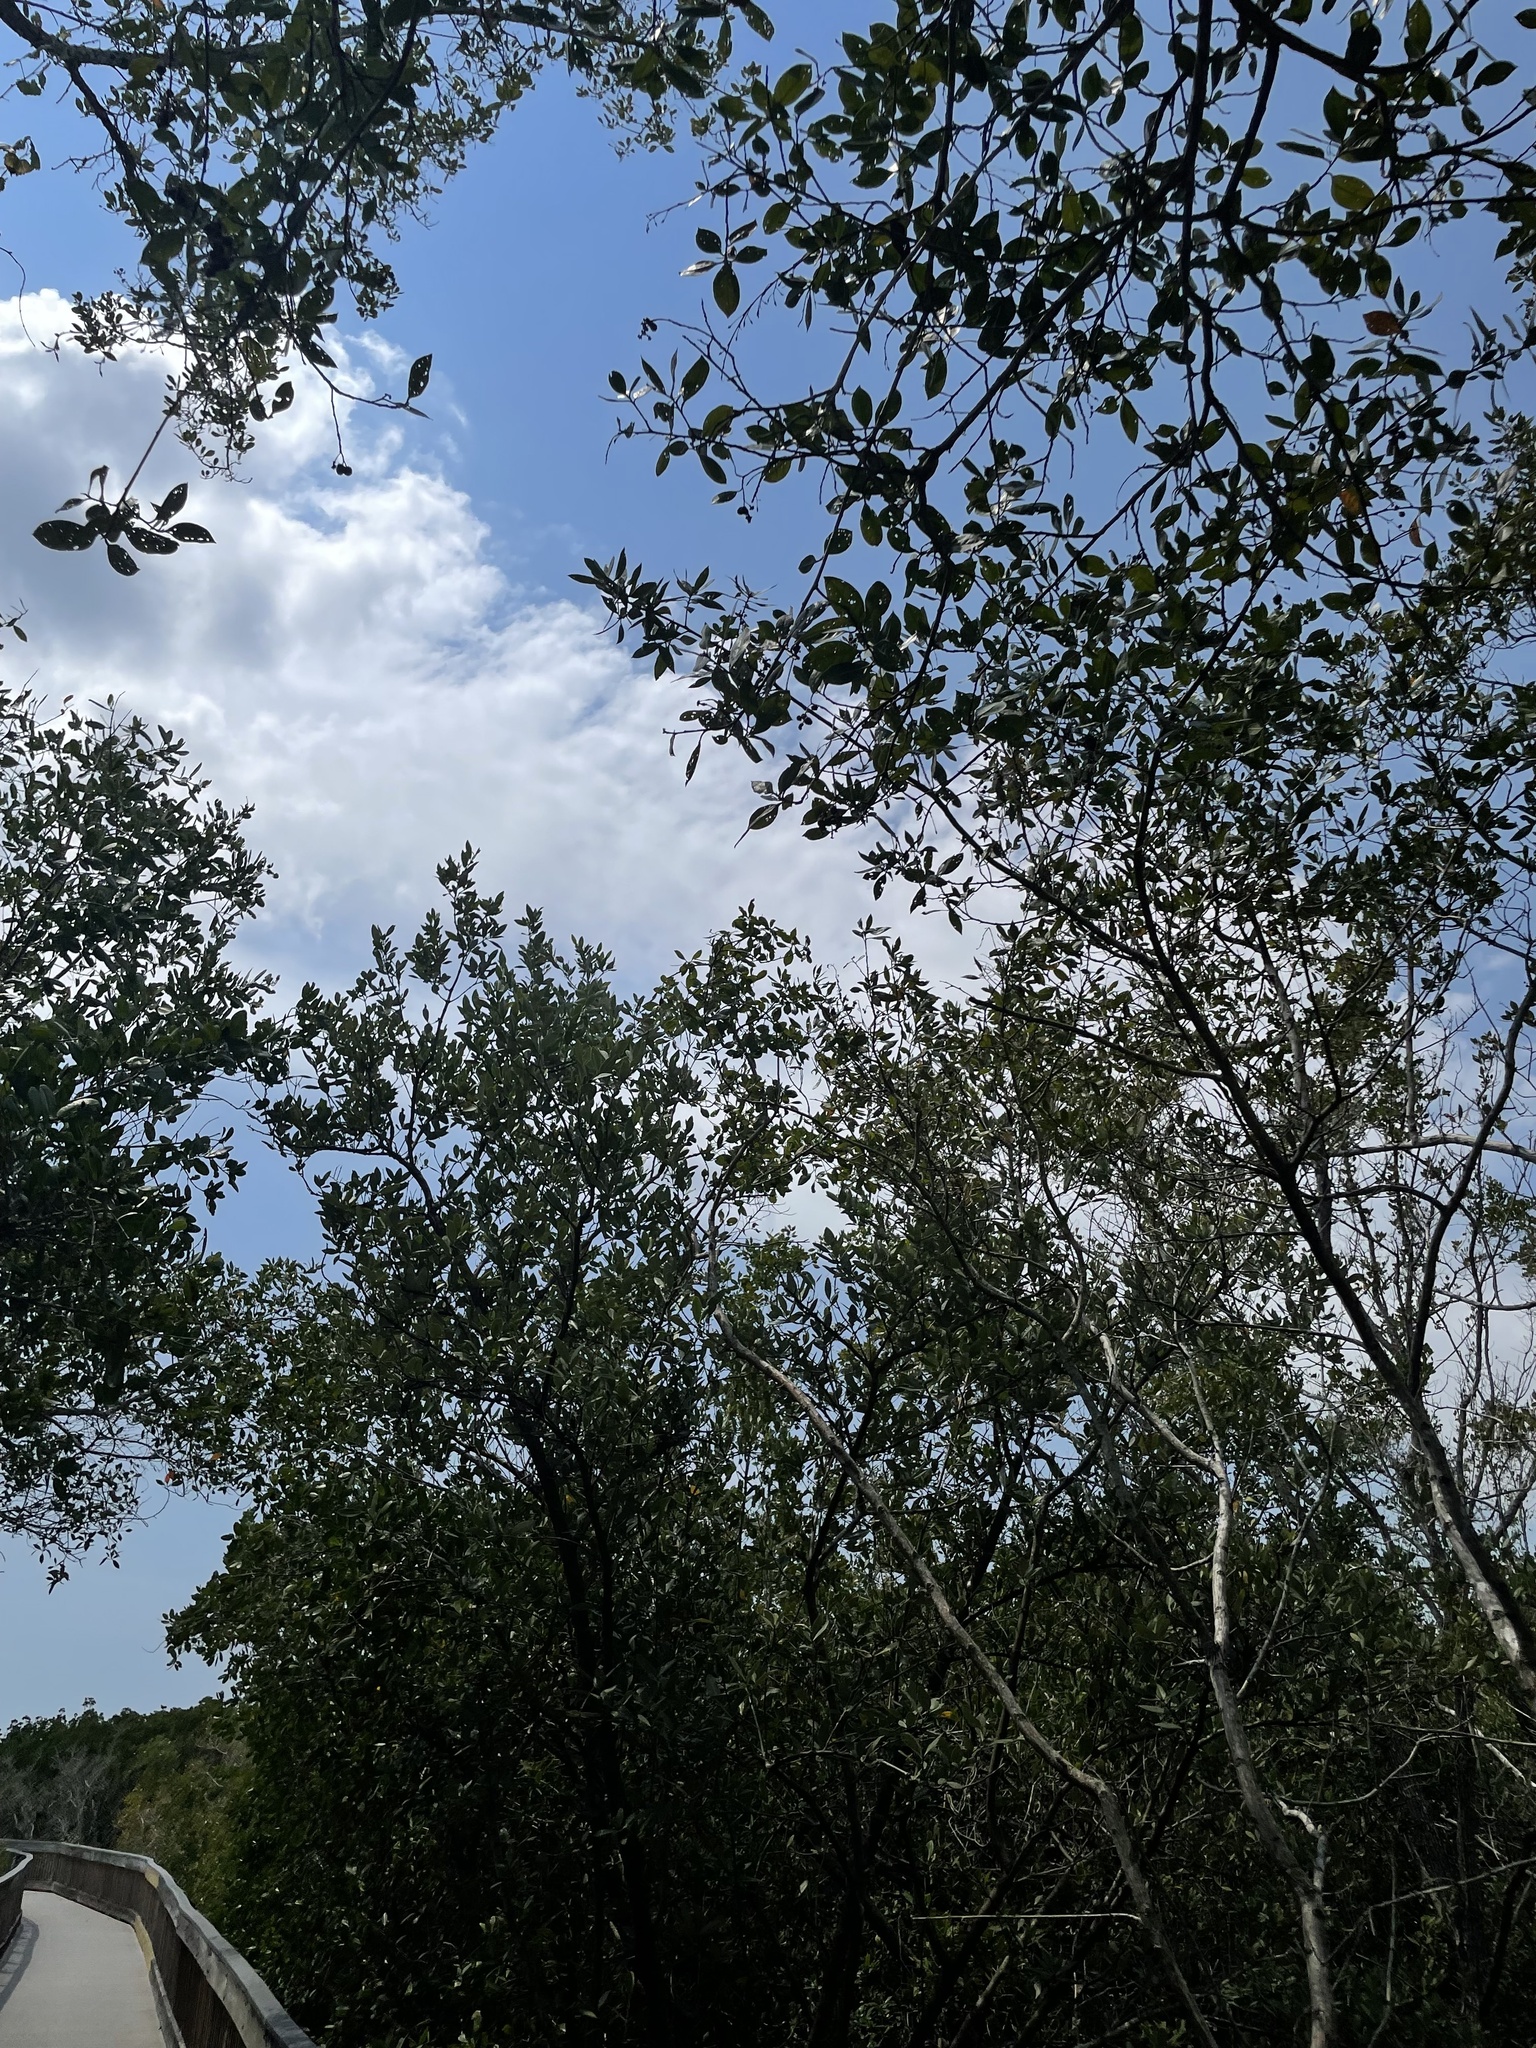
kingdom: Plantae
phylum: Tracheophyta
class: Magnoliopsida
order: Myrtales
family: Combretaceae
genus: Conocarpus
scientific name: Conocarpus erectus
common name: Button mangrove
